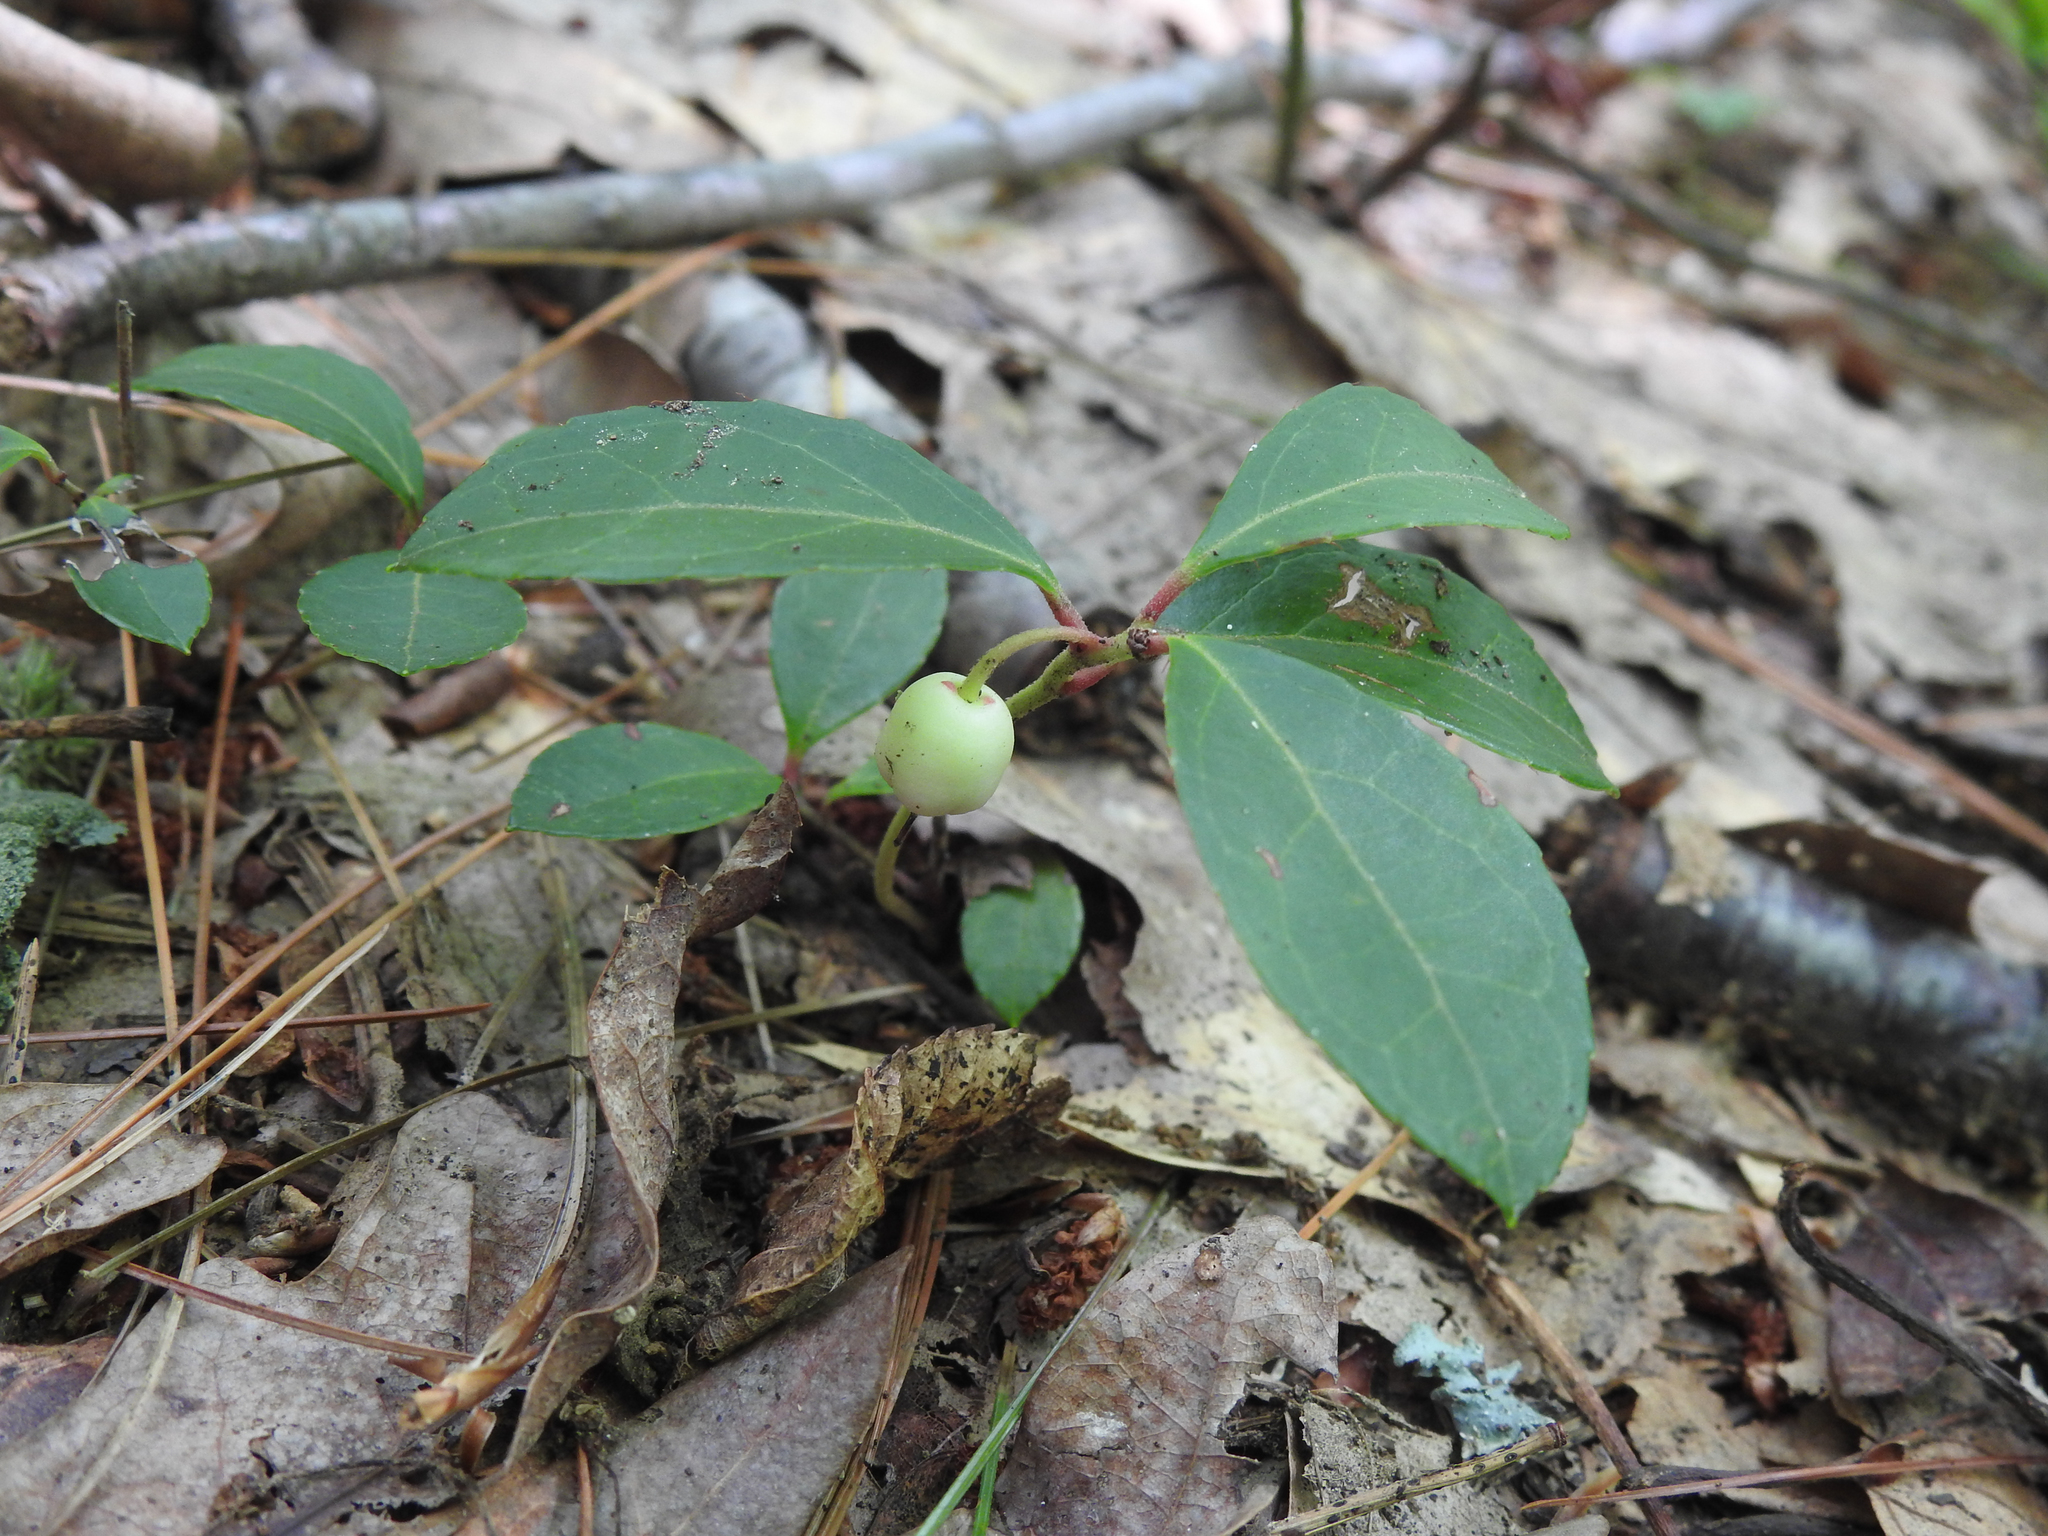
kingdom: Plantae
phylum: Tracheophyta
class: Magnoliopsida
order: Ericales
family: Ericaceae
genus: Gaultheria
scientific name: Gaultheria procumbens
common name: Checkerberry
